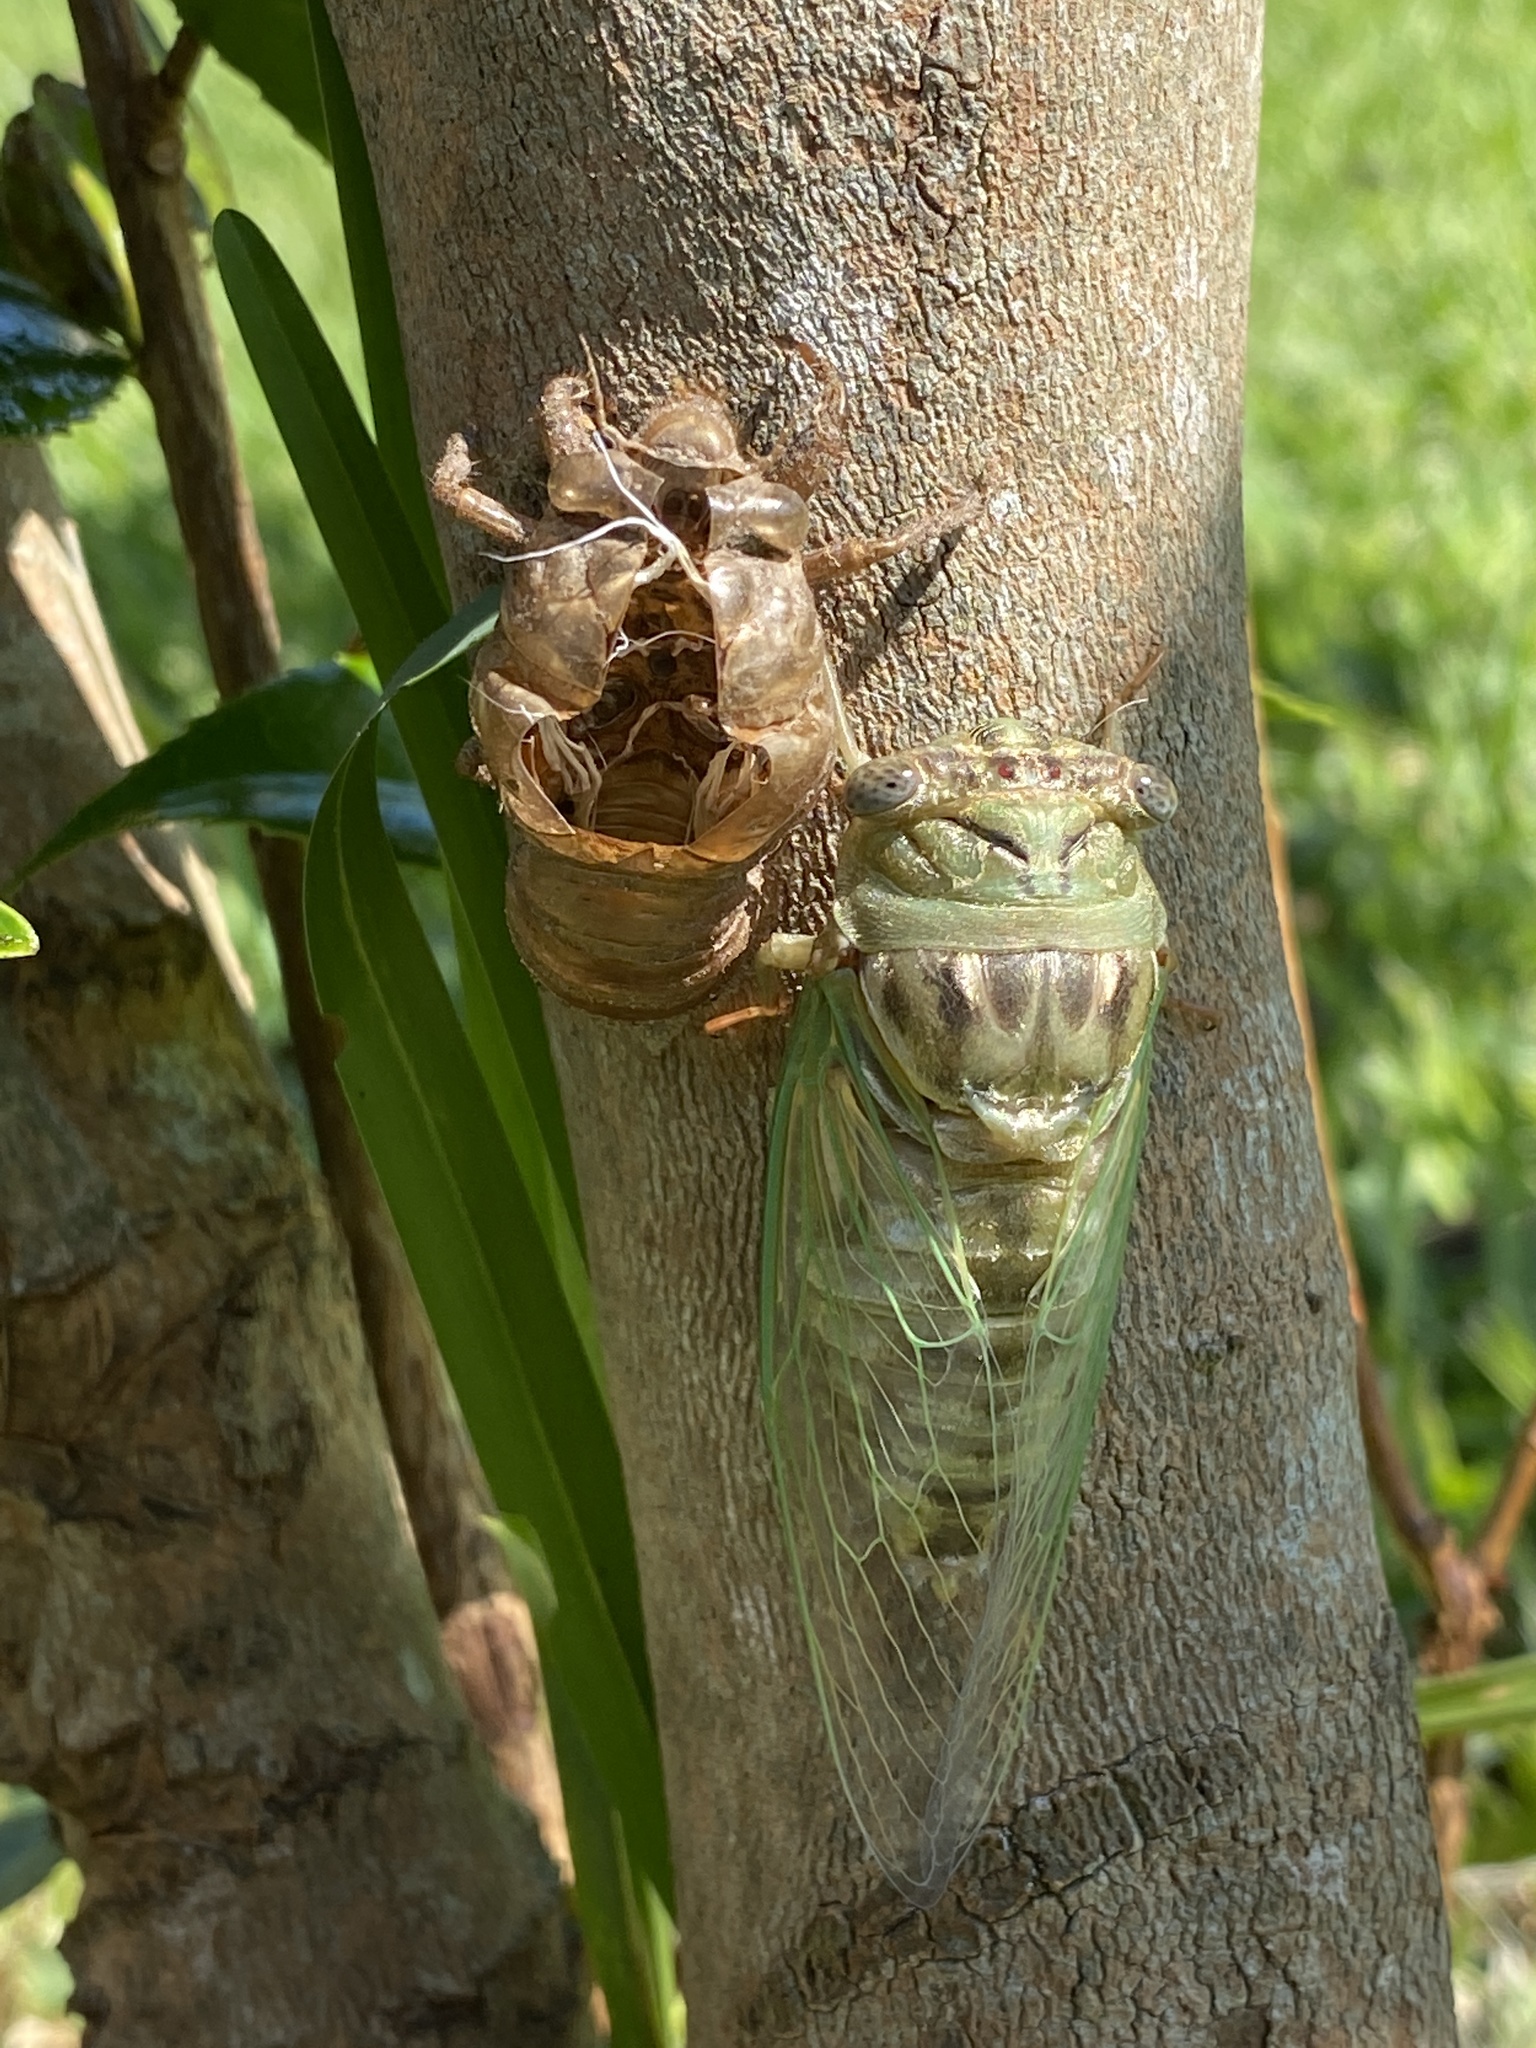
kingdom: Animalia
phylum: Arthropoda
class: Insecta
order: Hemiptera
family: Cicadidae
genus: Megatibicen
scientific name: Megatibicen resh
